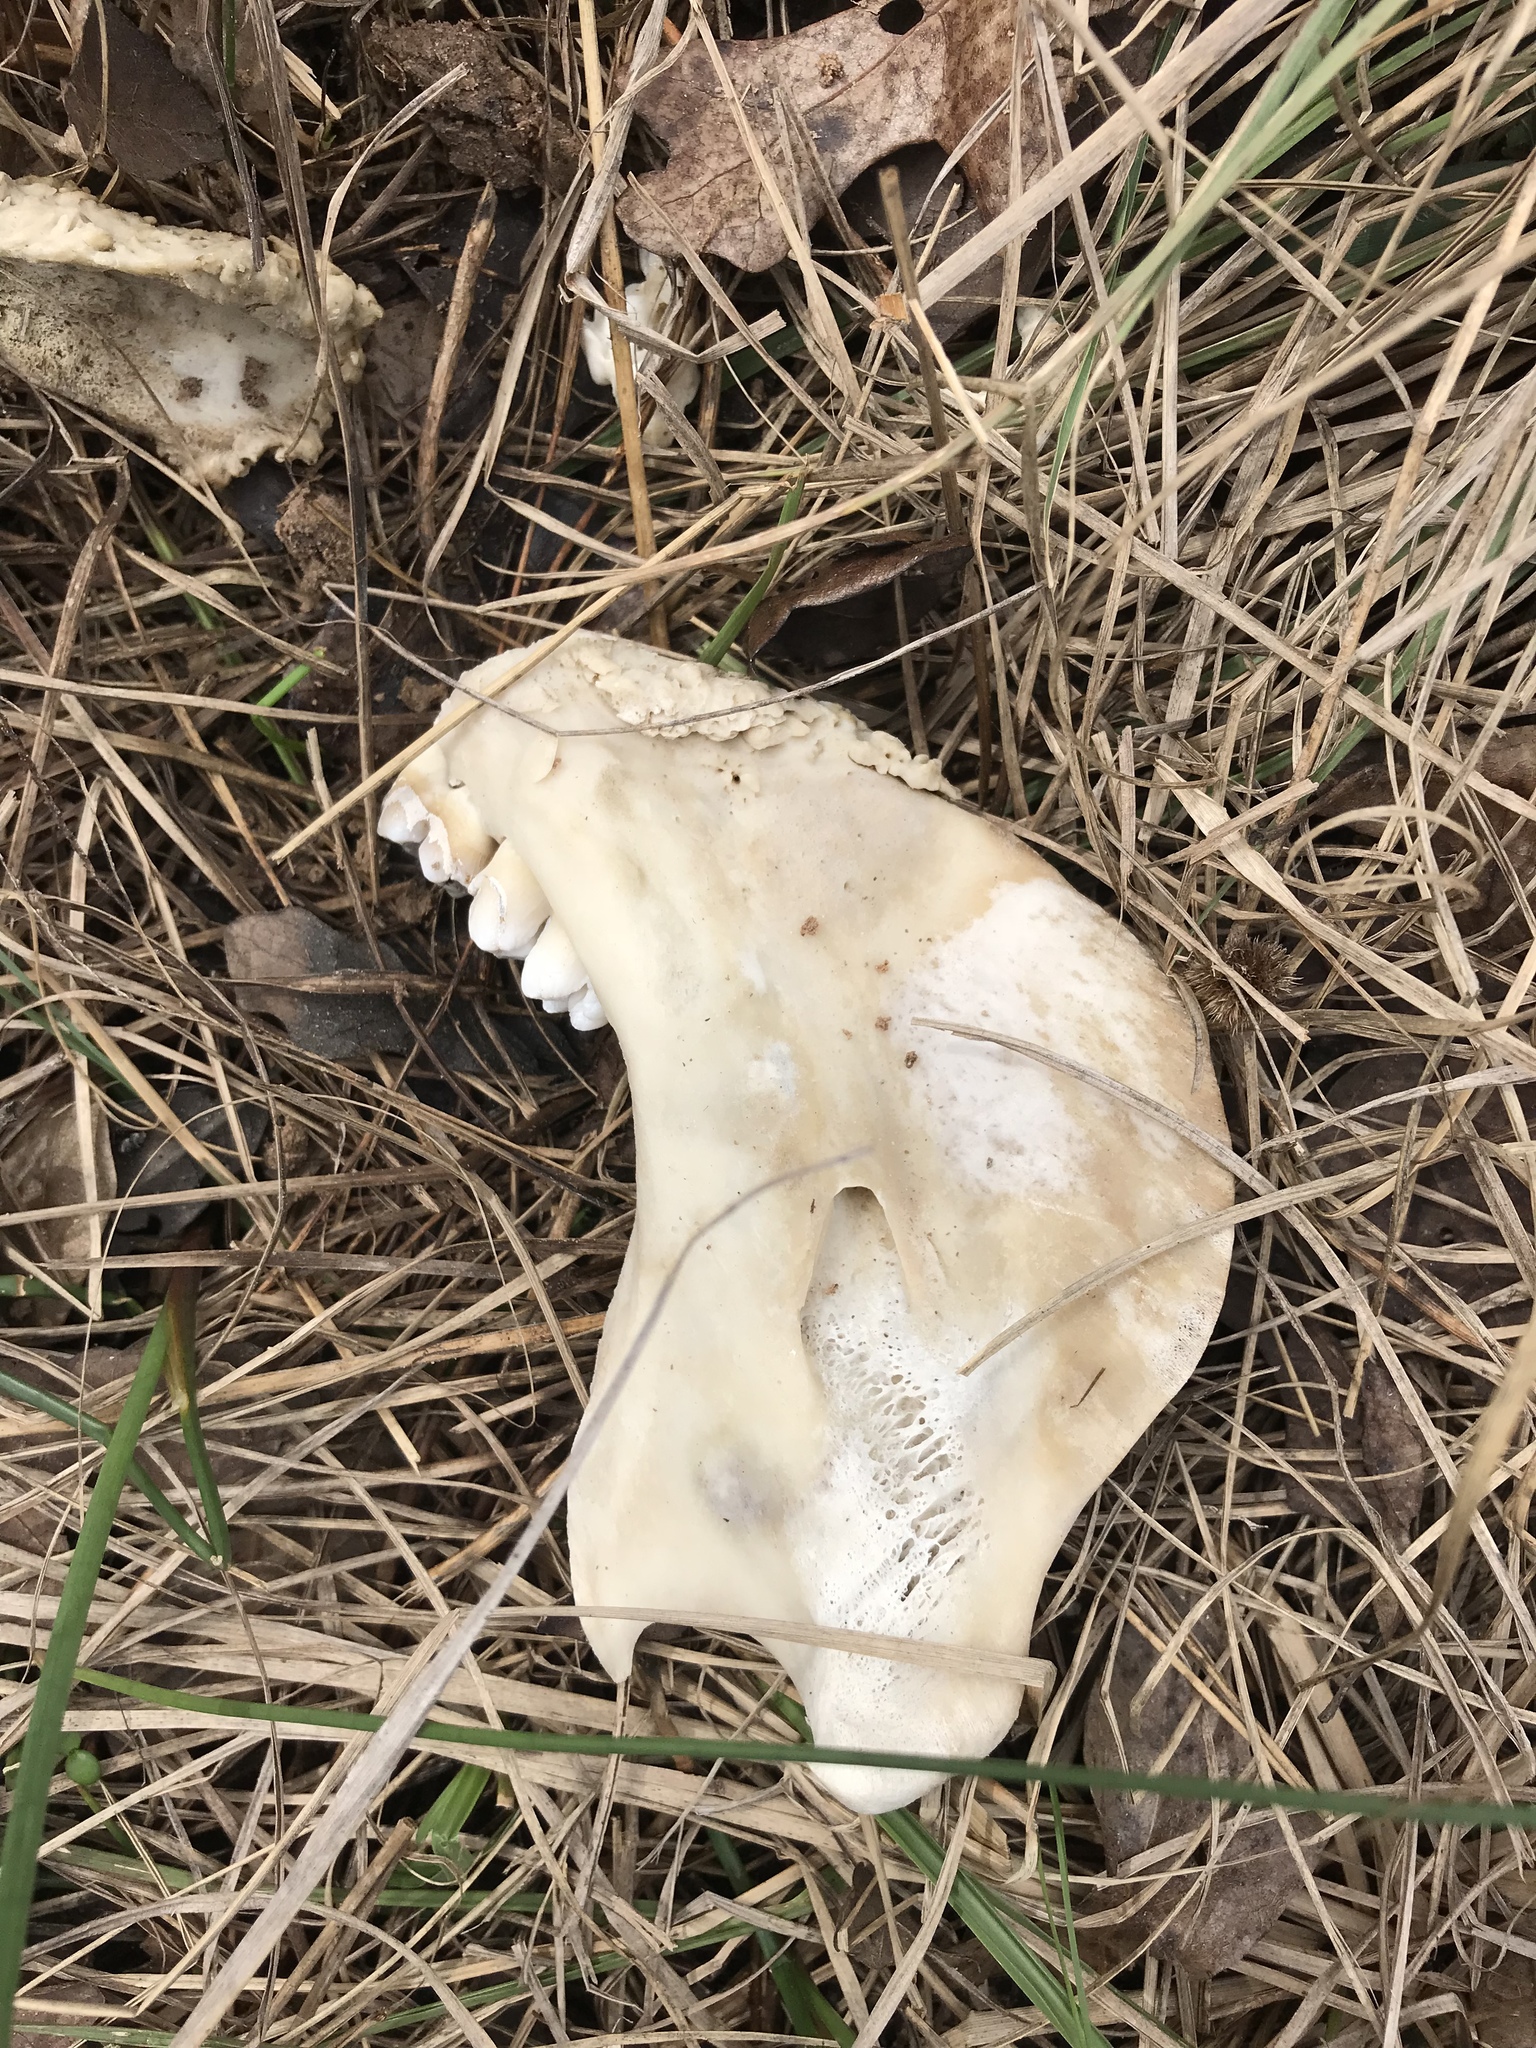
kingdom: Animalia
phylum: Chordata
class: Mammalia
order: Artiodactyla
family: Suidae
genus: Sus
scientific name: Sus scrofa
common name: Wild boar
